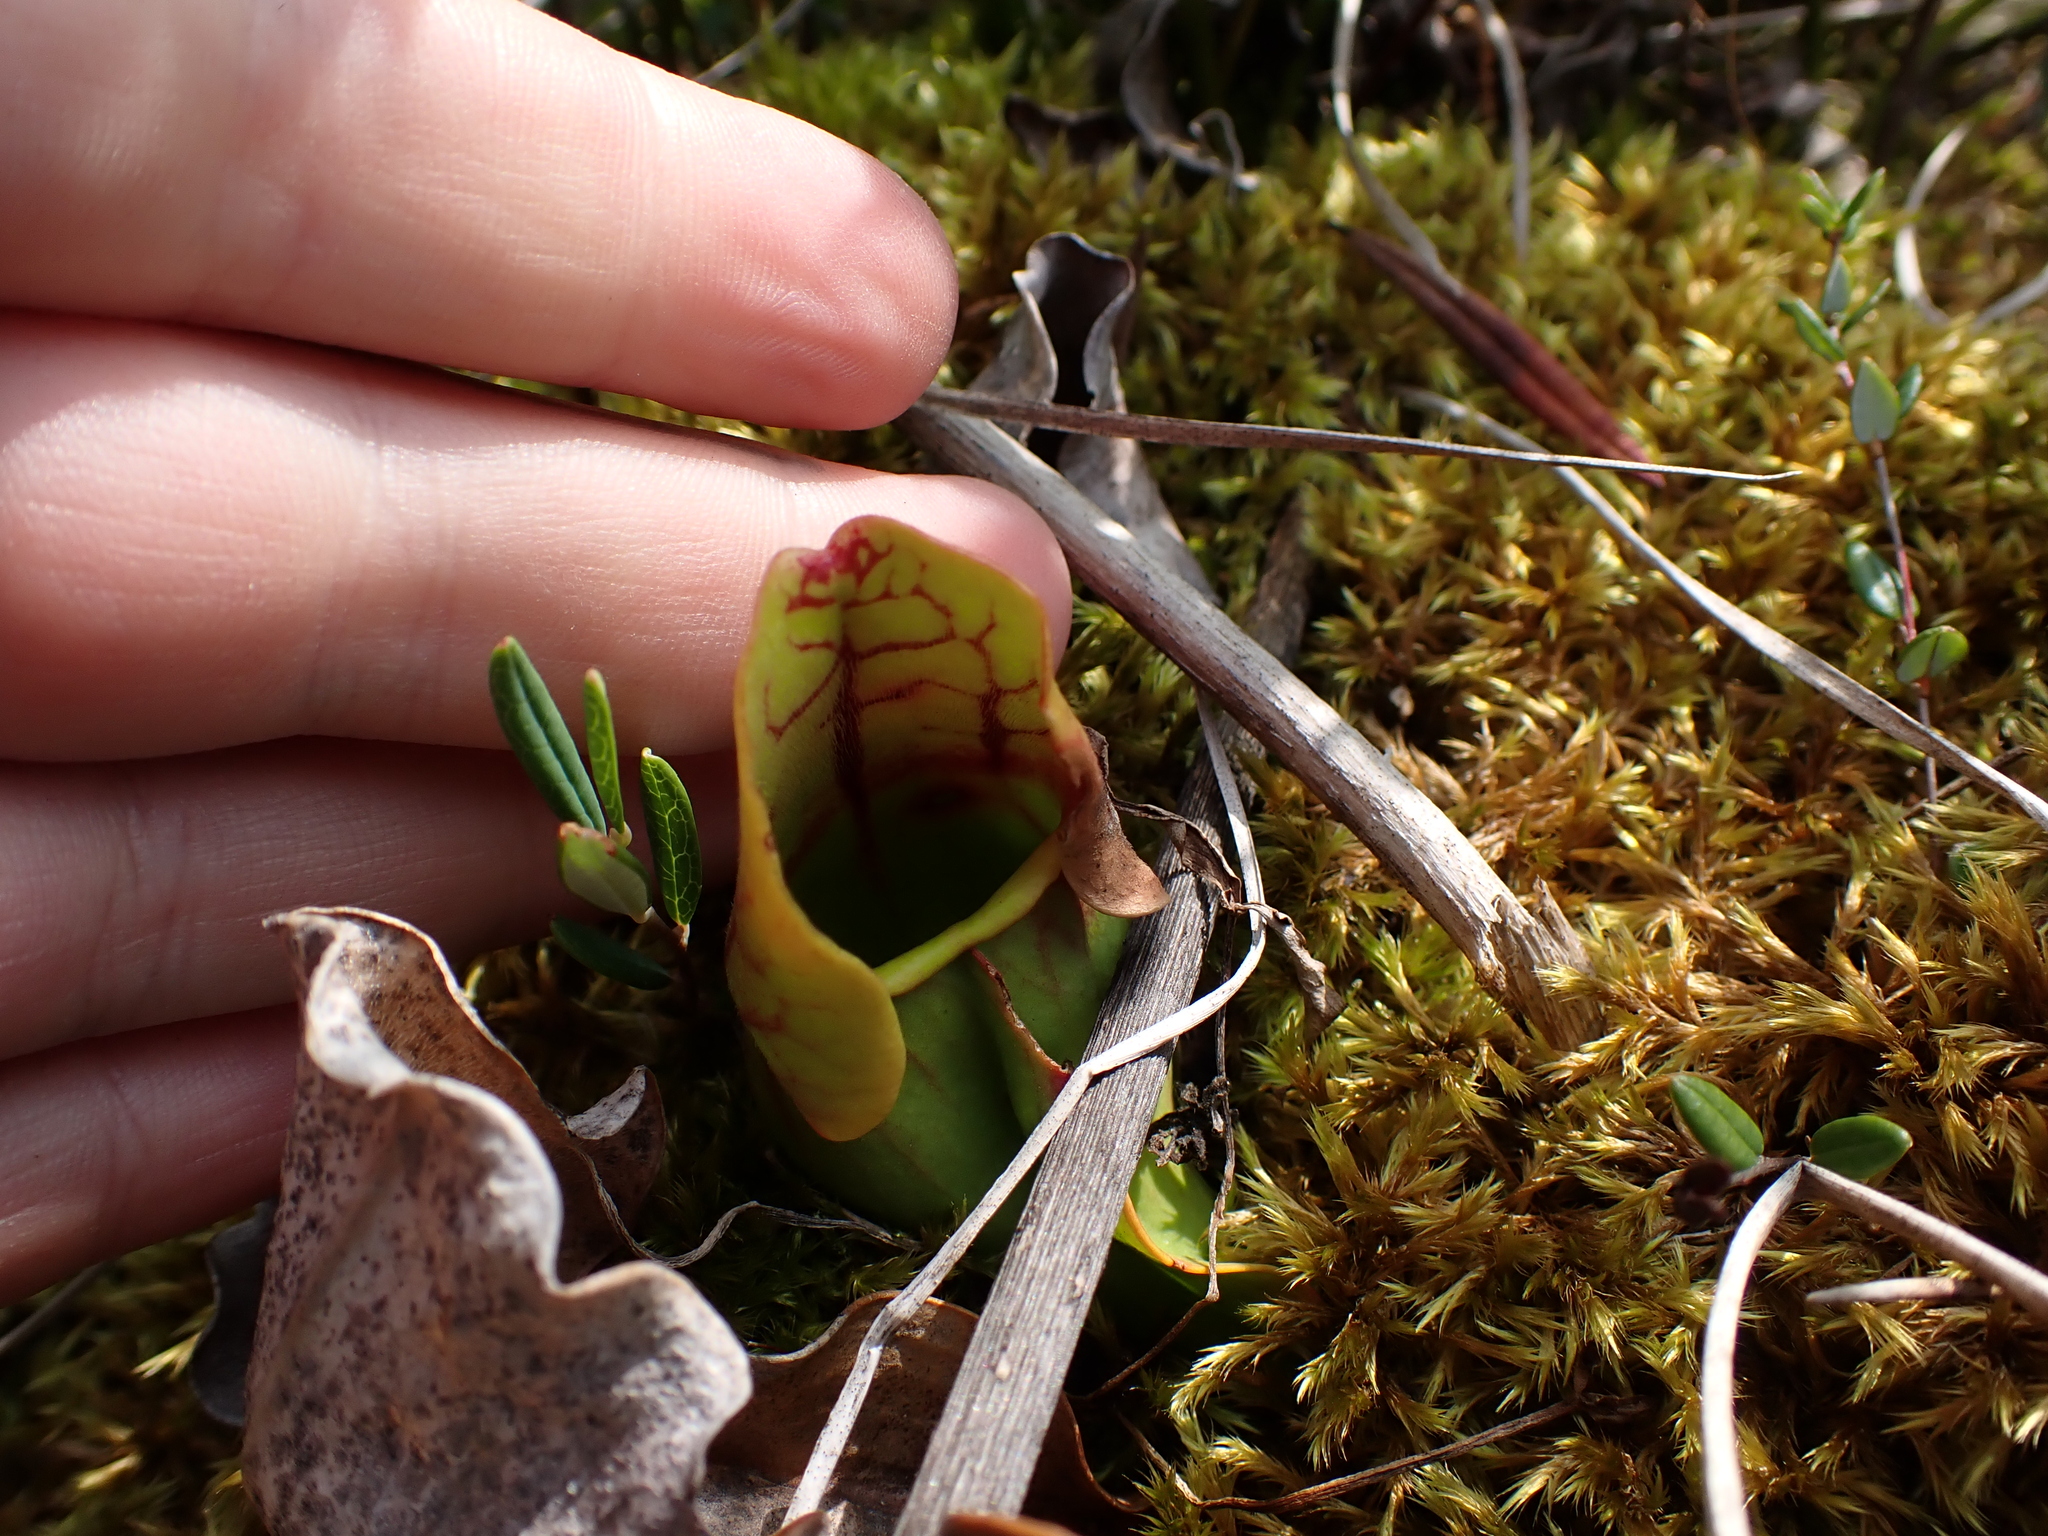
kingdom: Plantae
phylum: Tracheophyta
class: Magnoliopsida
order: Ericales
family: Sarraceniaceae
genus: Sarracenia
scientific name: Sarracenia purpurea
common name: Pitcherplant
